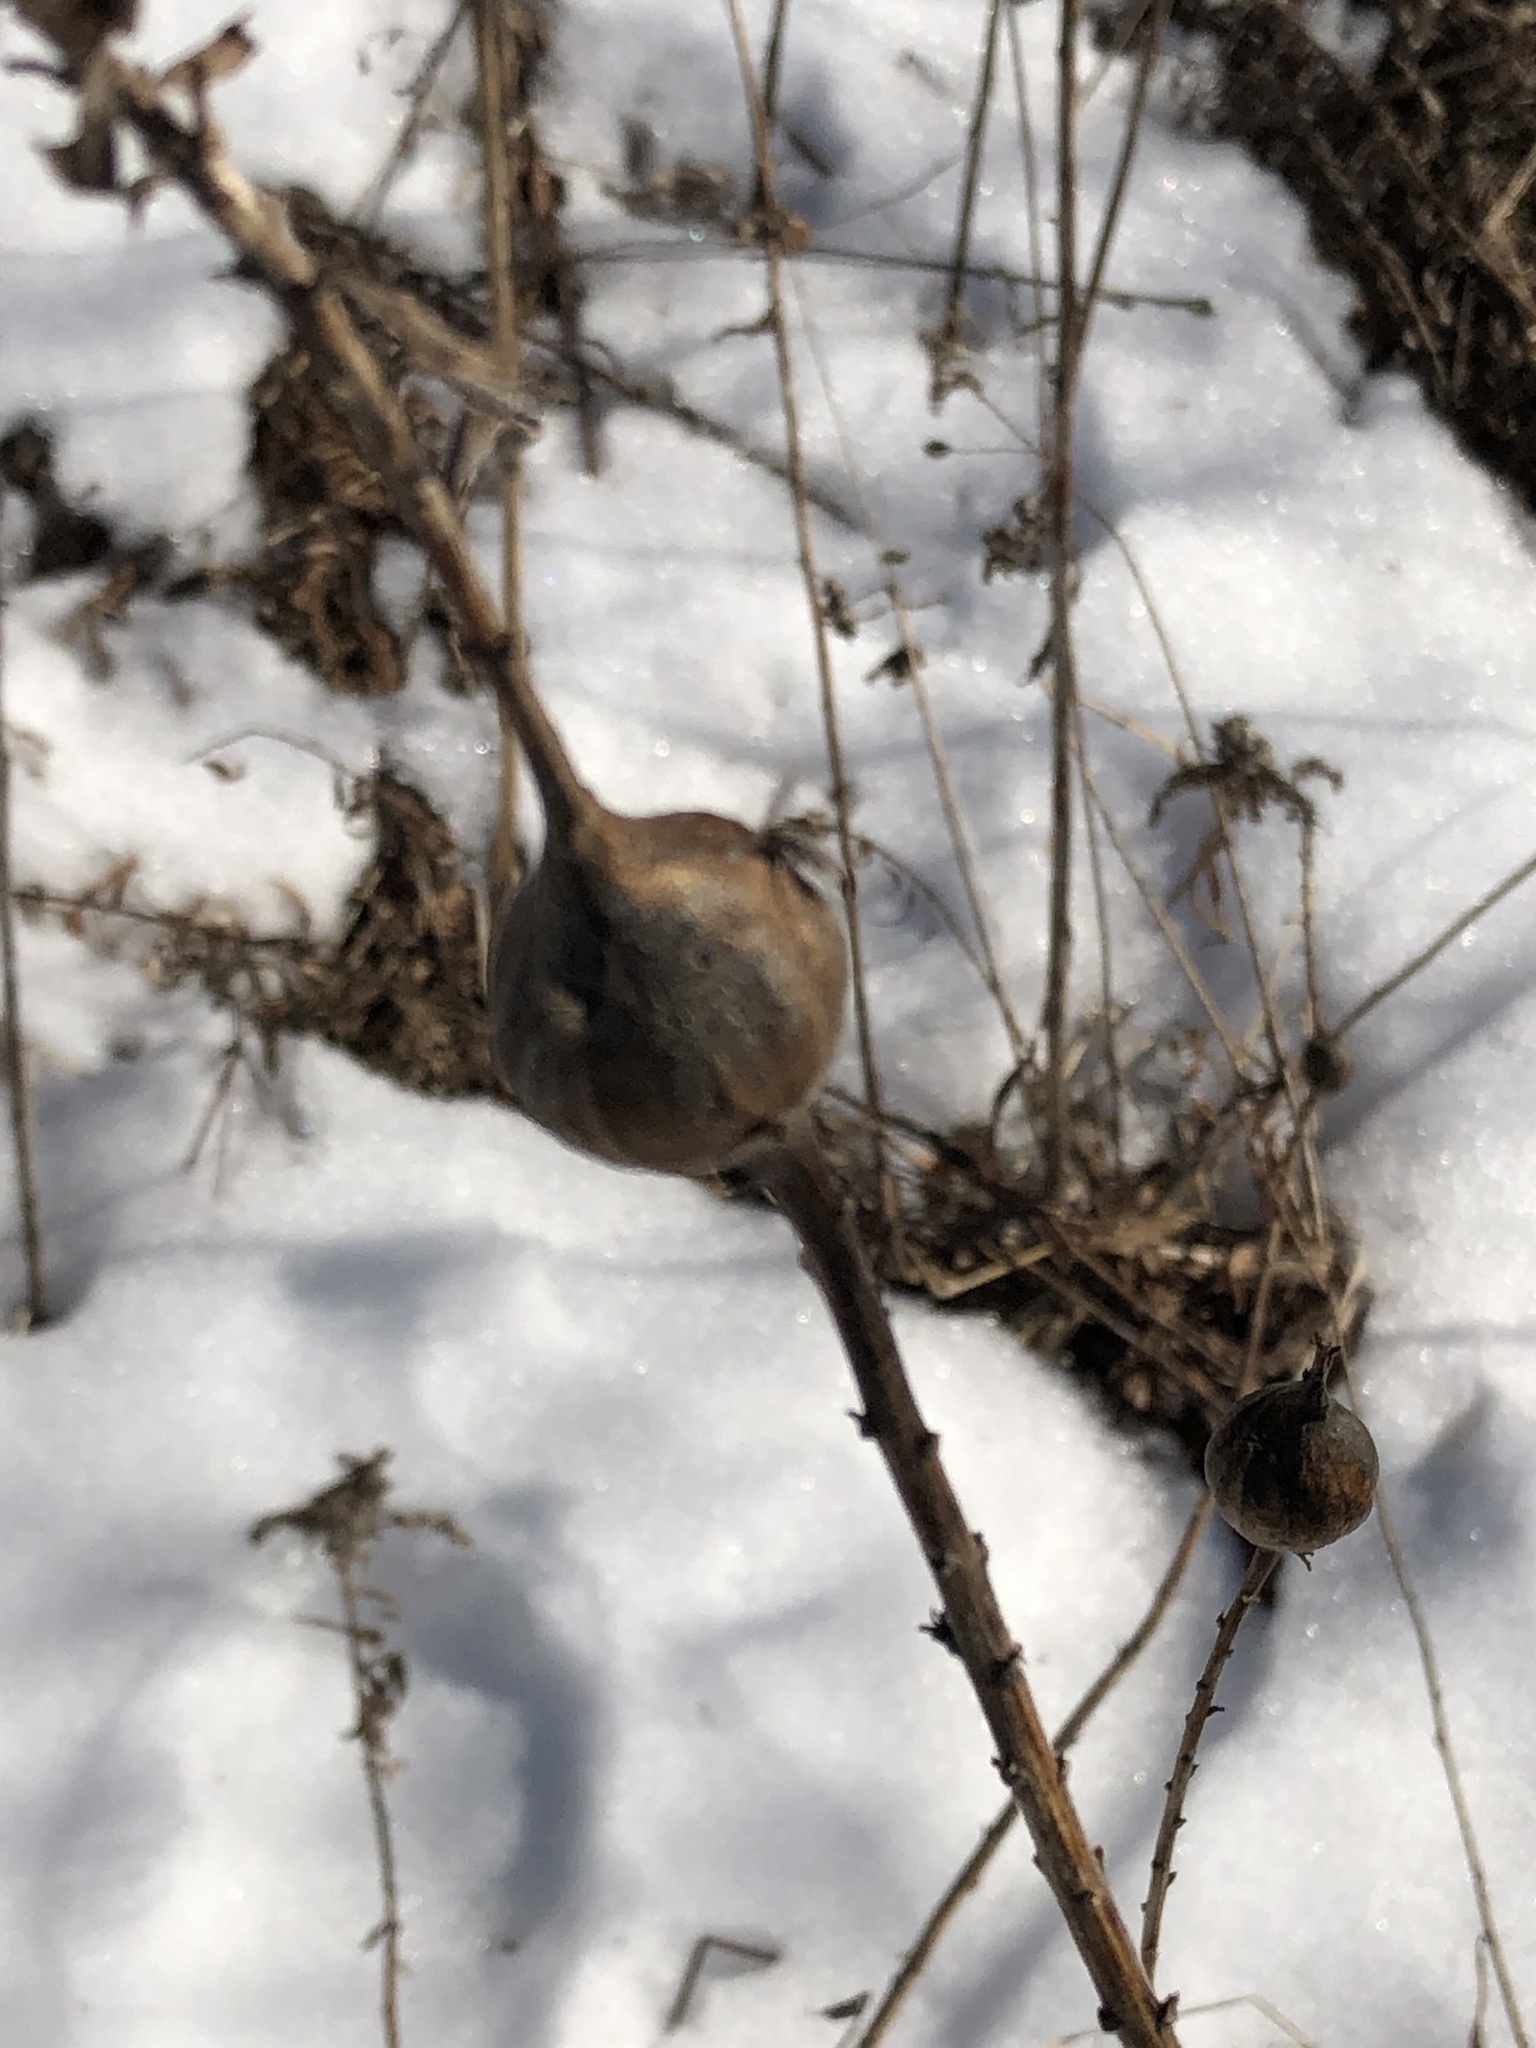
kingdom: Animalia
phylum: Arthropoda
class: Insecta
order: Diptera
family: Tephritidae
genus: Eurosta
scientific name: Eurosta solidaginis
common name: Goldenrod gall fly
